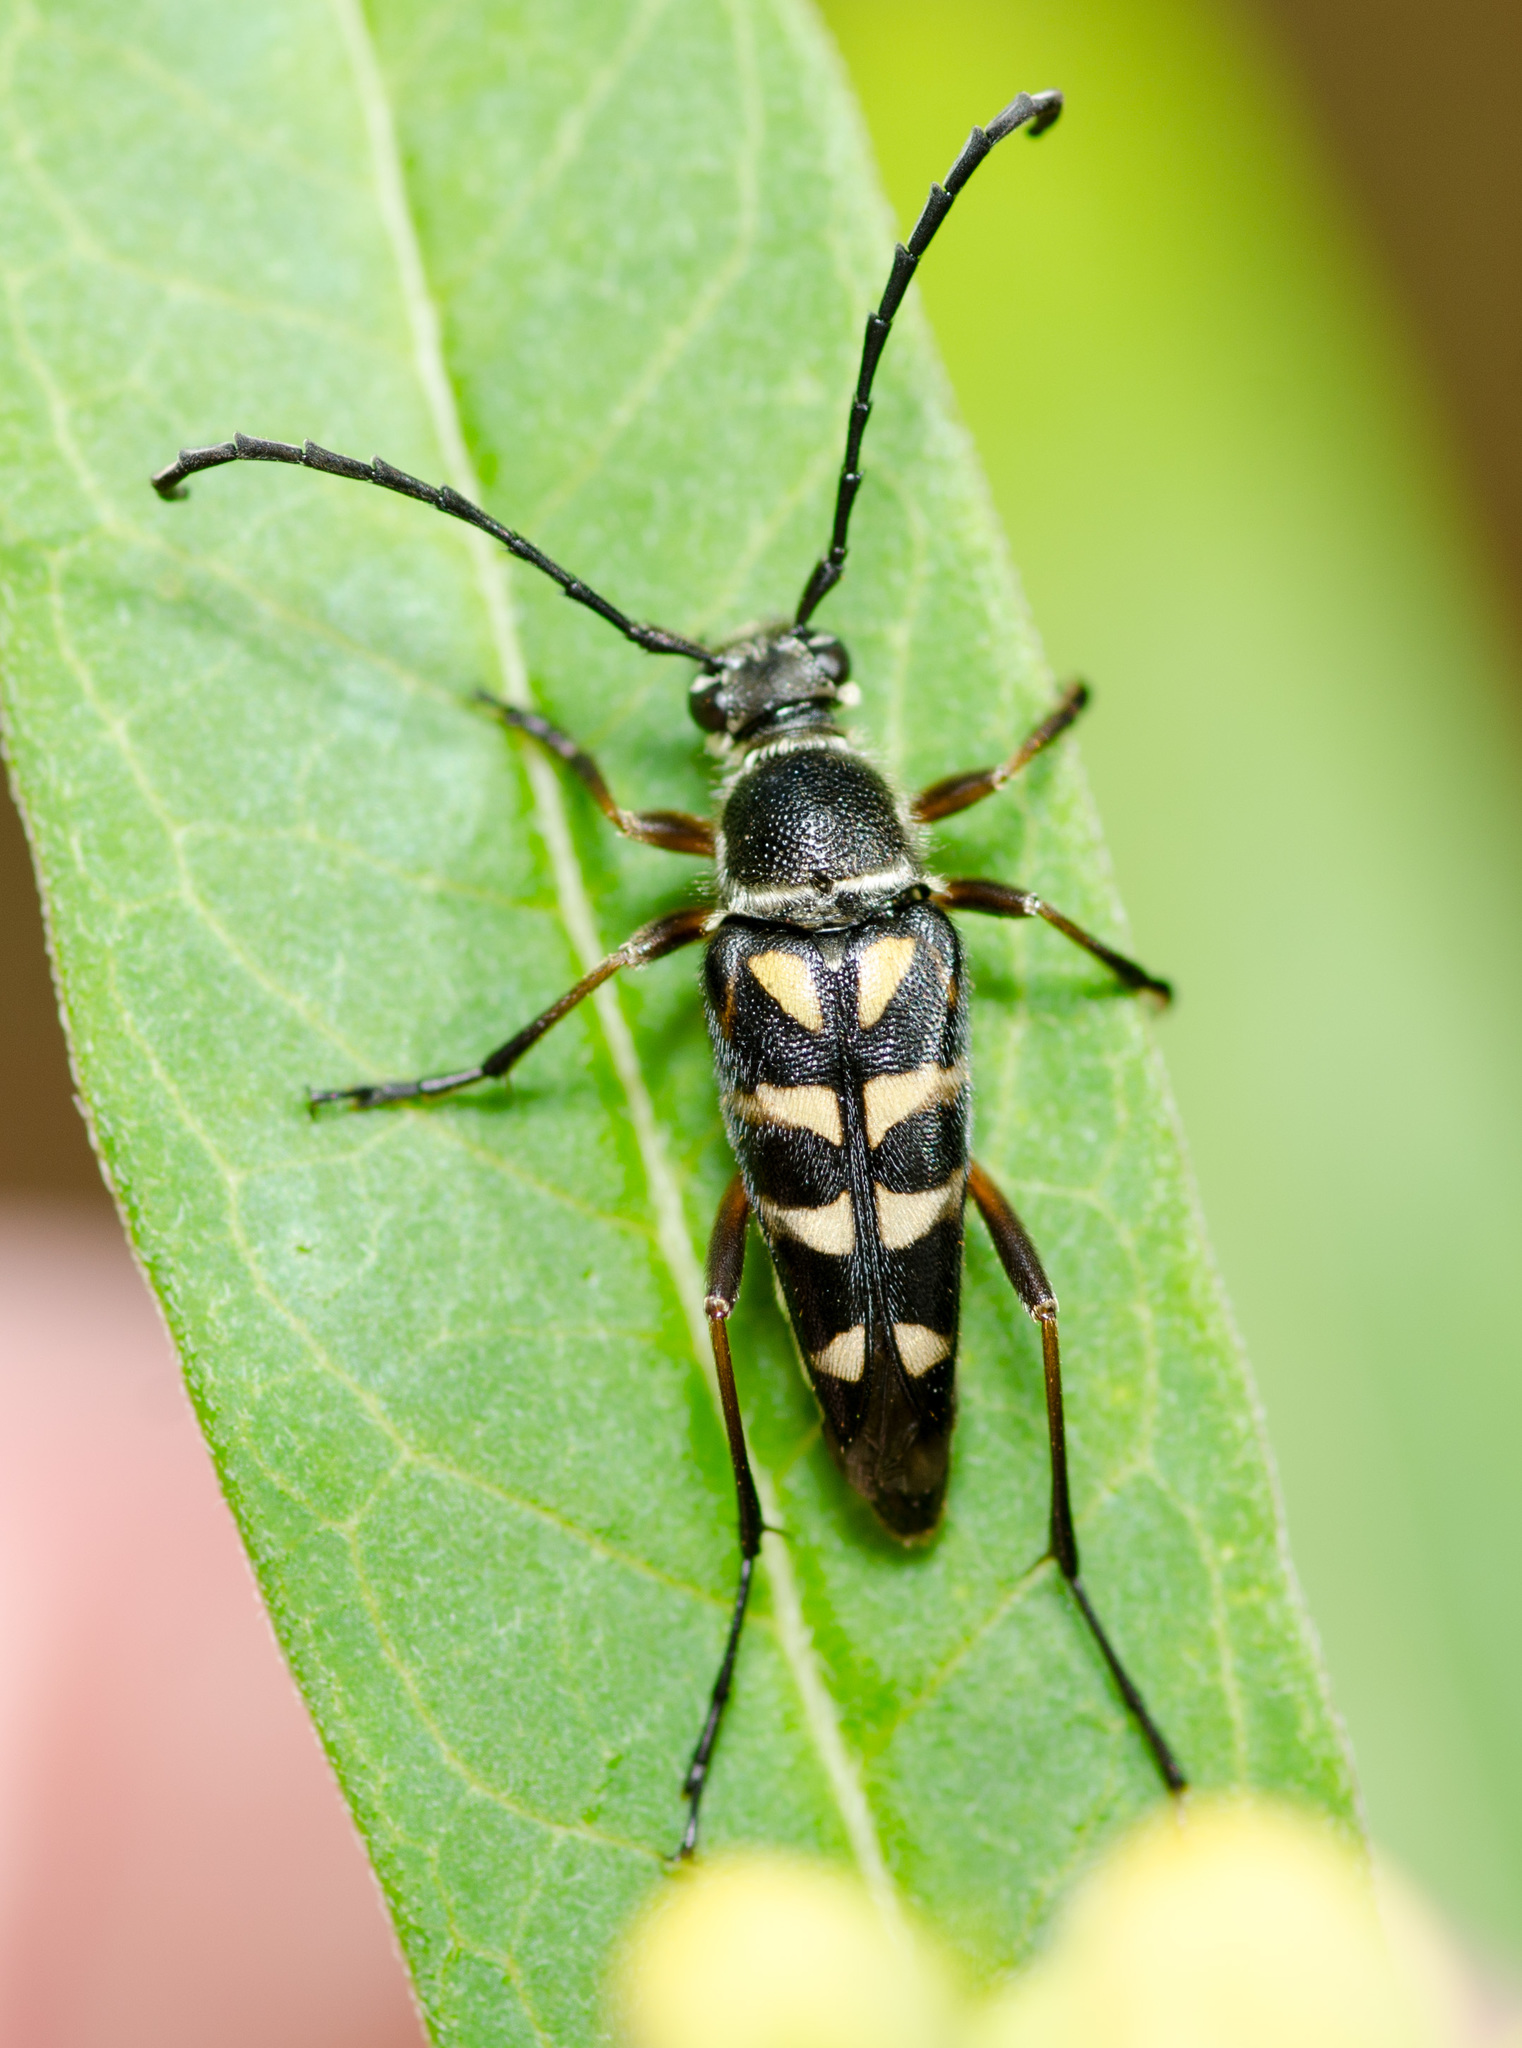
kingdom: Animalia
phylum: Arthropoda
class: Insecta
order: Coleoptera
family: Cerambycidae
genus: Typocerus
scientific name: Typocerus zebra
